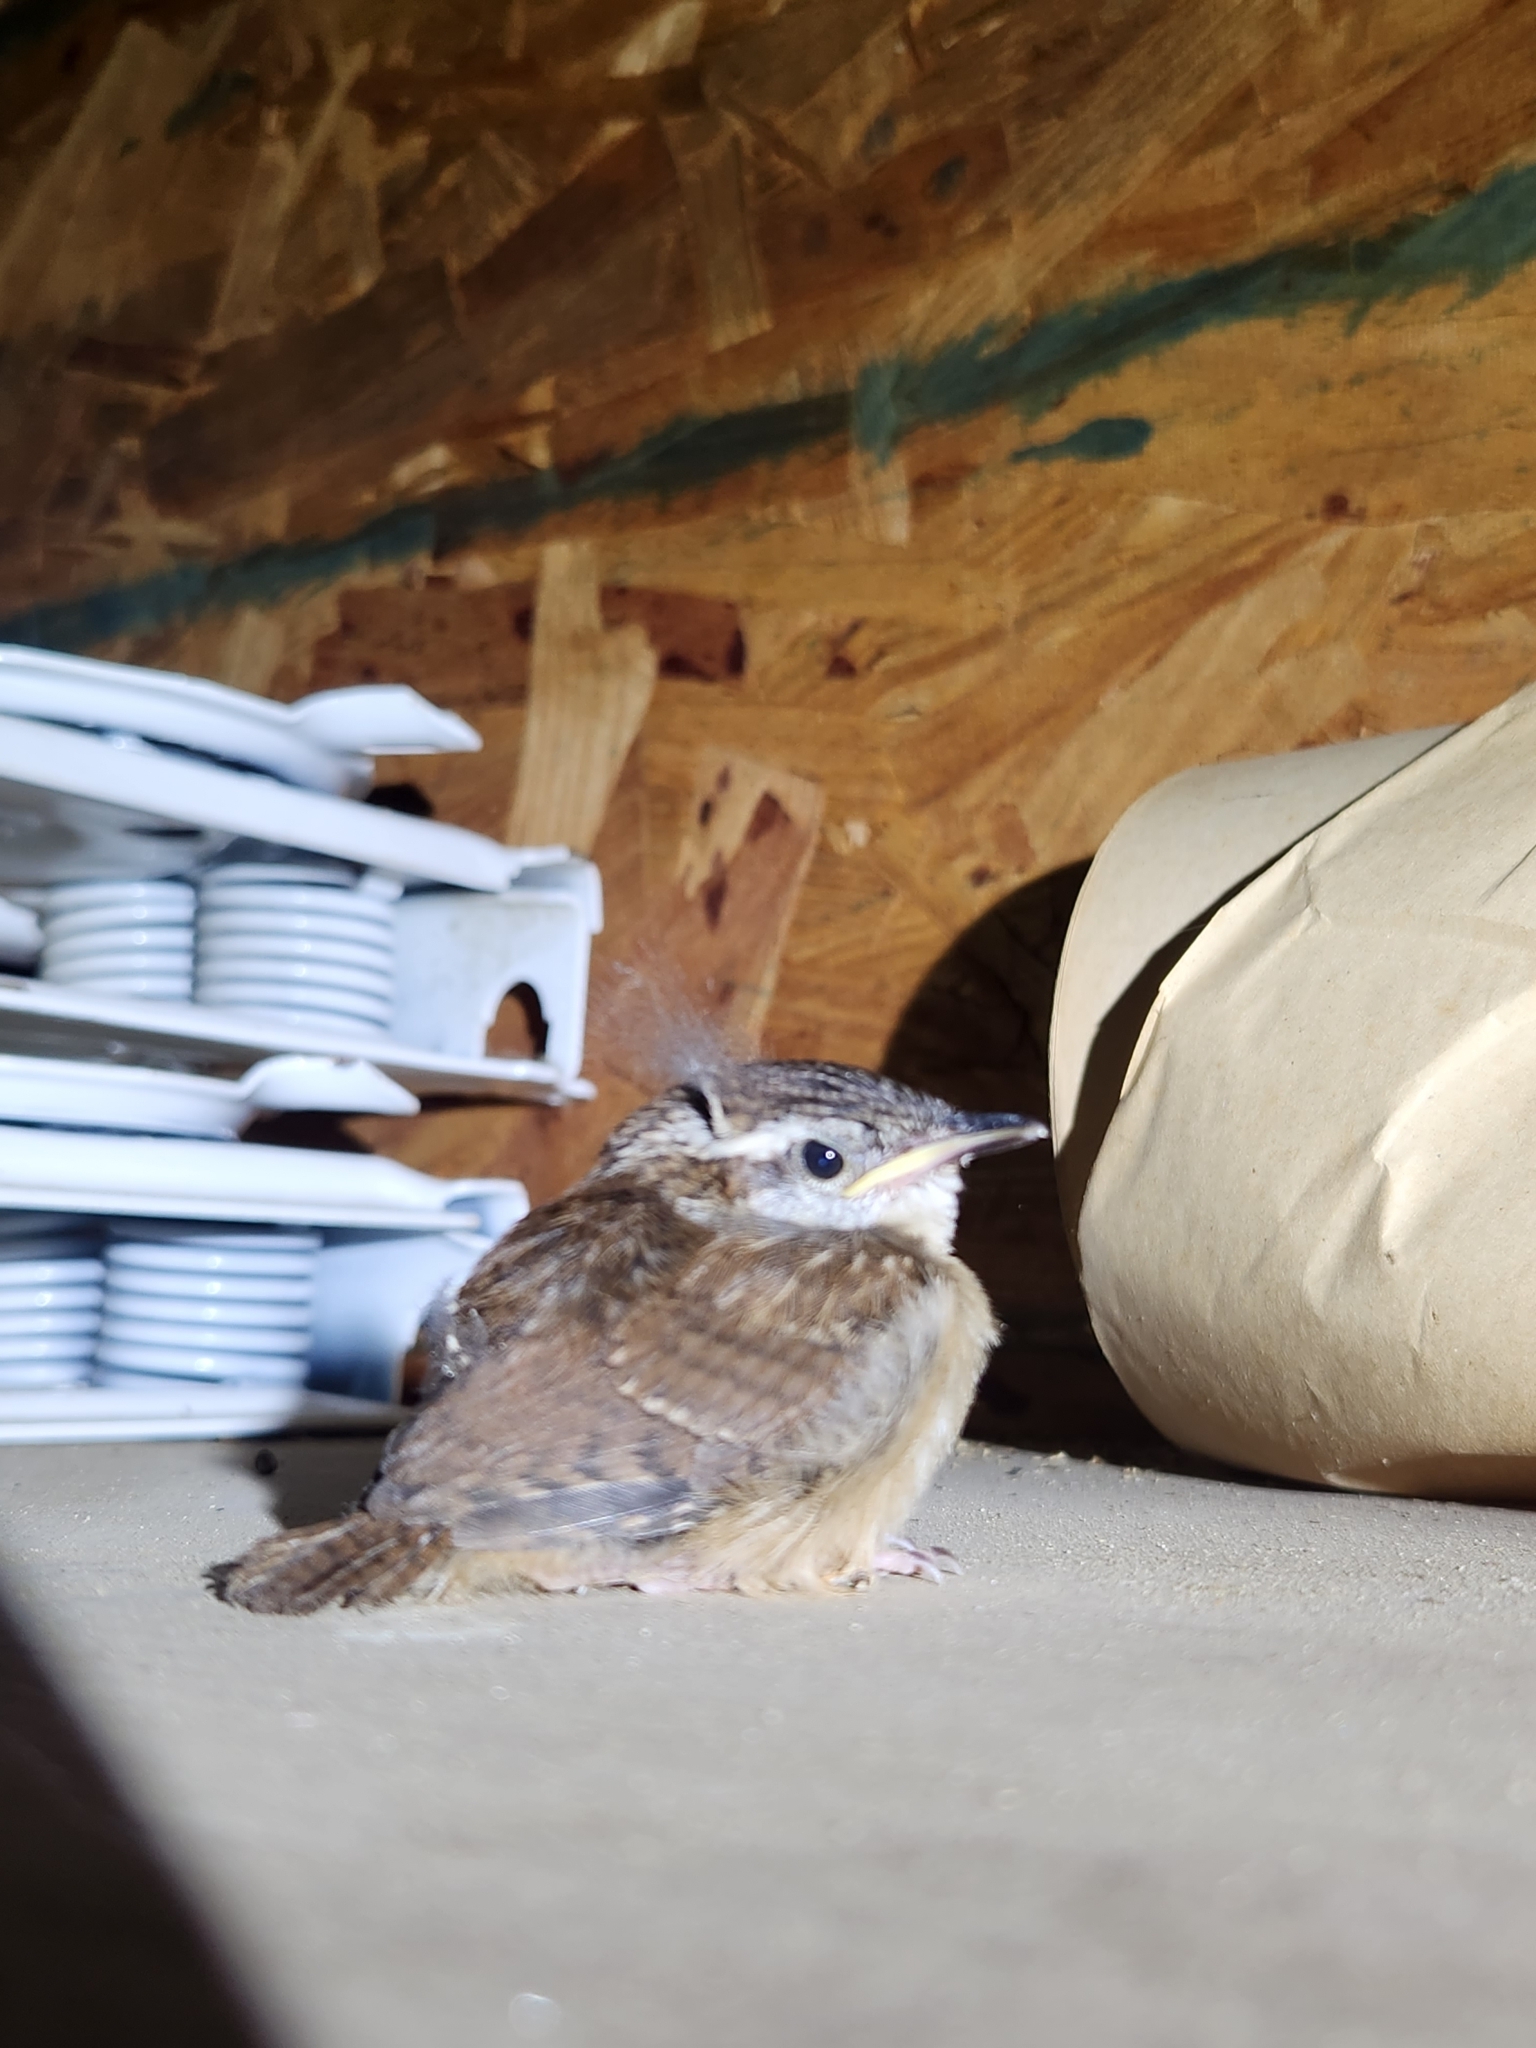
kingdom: Animalia
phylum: Chordata
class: Aves
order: Passeriformes
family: Troglodytidae
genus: Thryothorus
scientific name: Thryothorus ludovicianus
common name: Carolina wren
